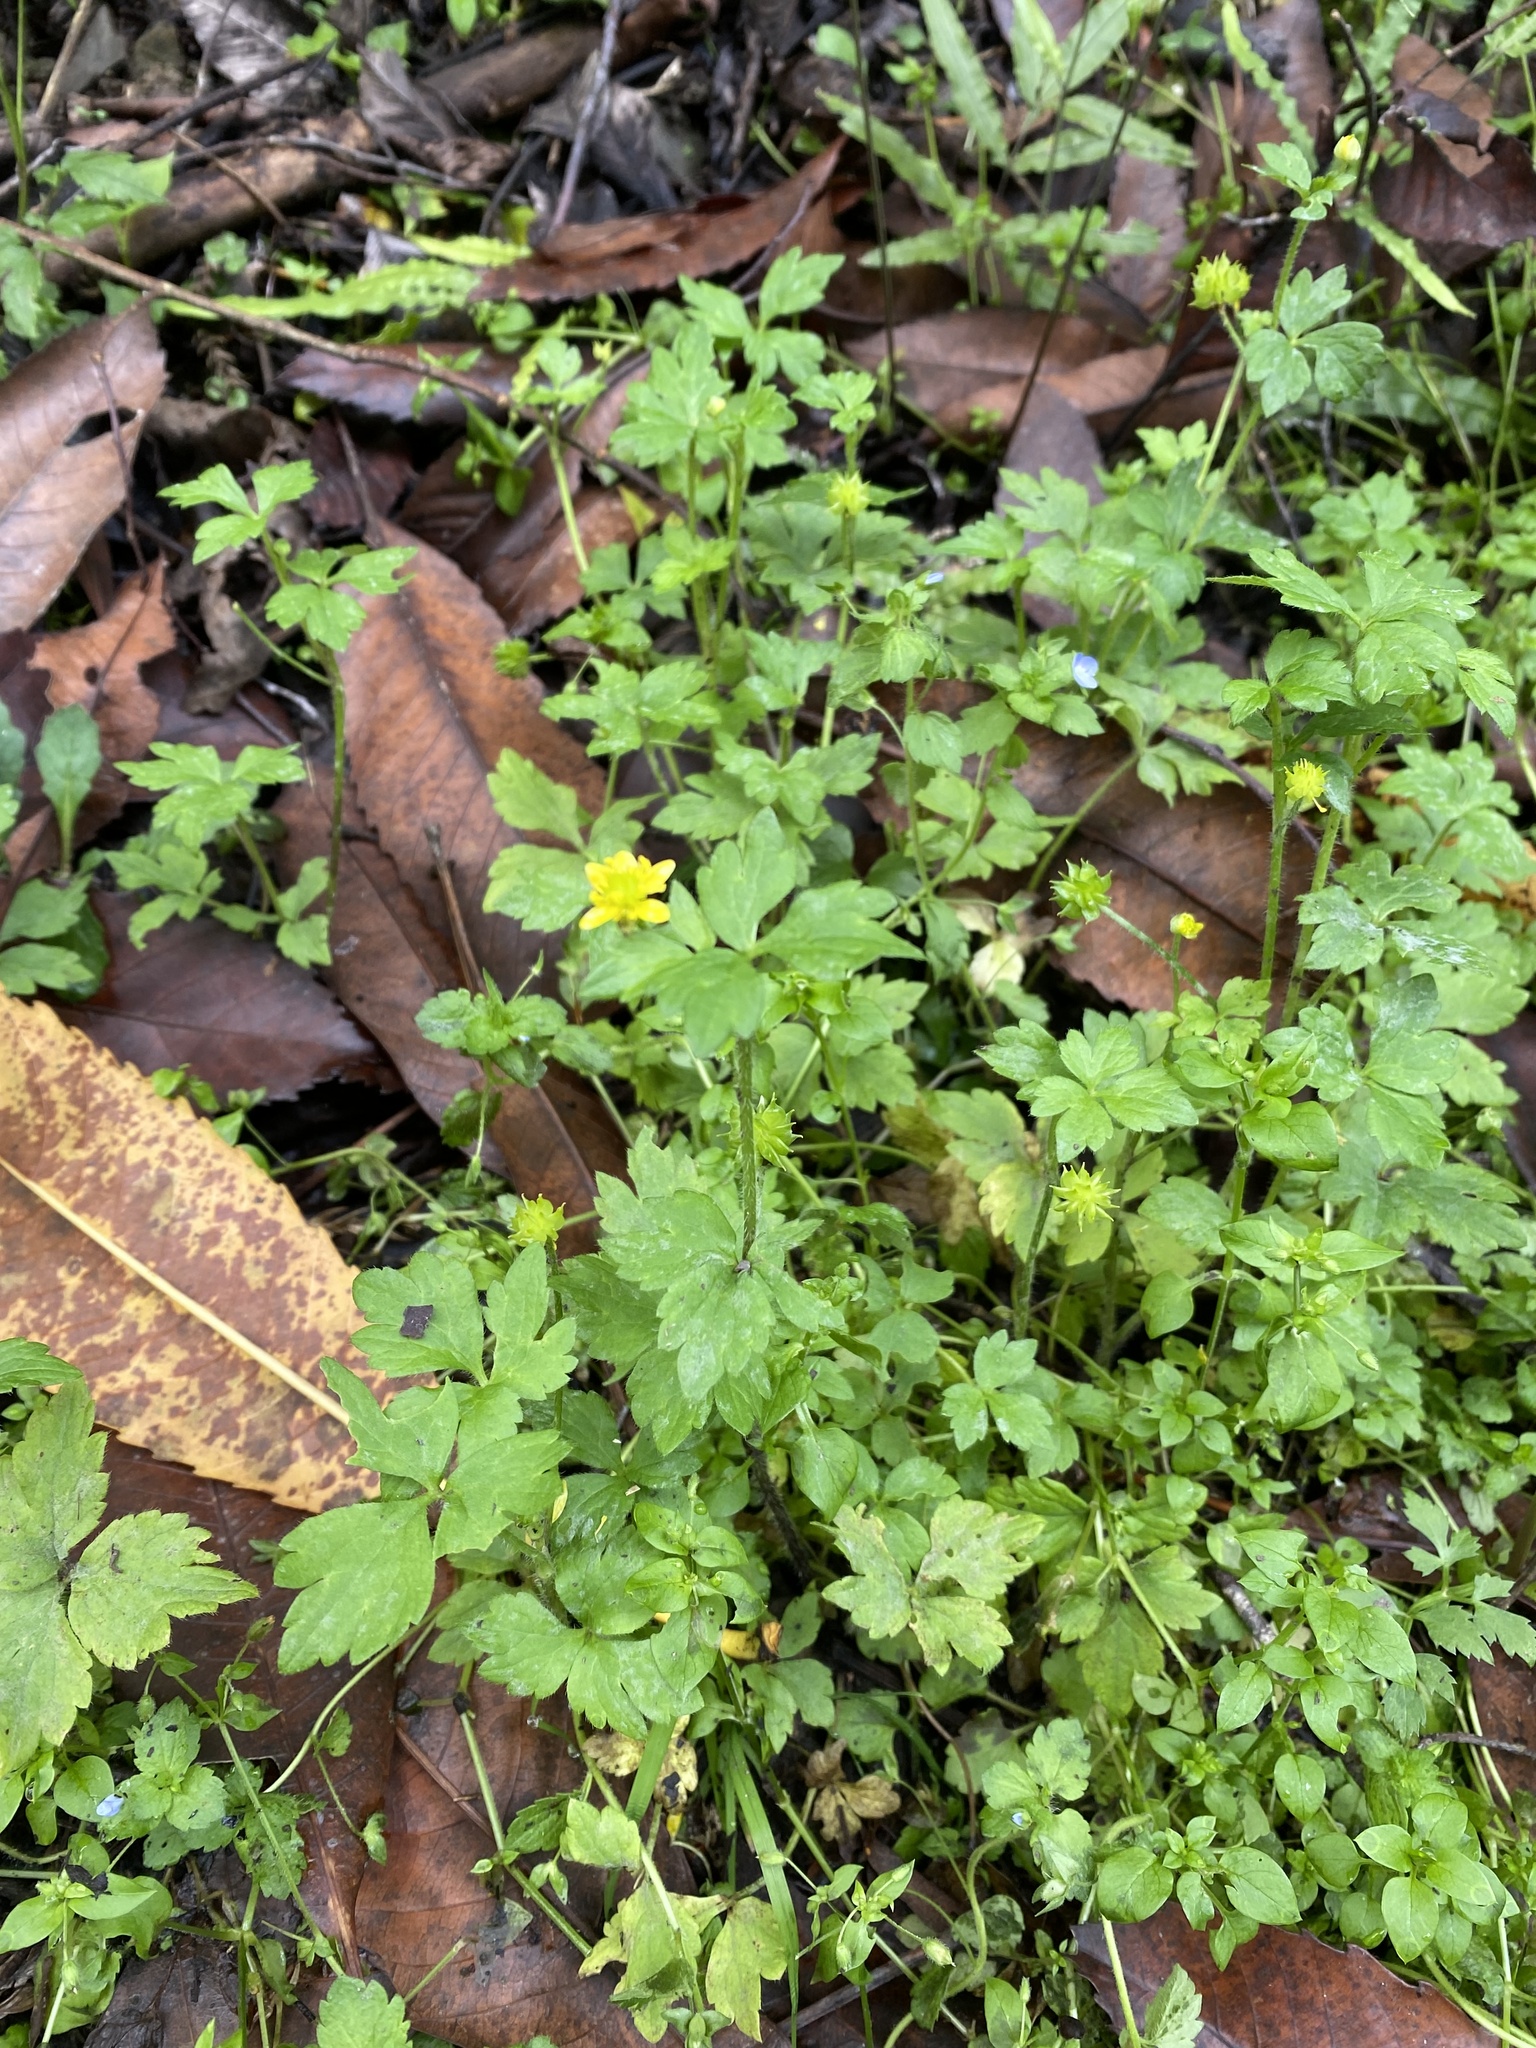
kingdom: Plantae
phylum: Tracheophyta
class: Magnoliopsida
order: Ranunculales
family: Ranunculaceae
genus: Ranunculus
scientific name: Ranunculus cantoniensis
